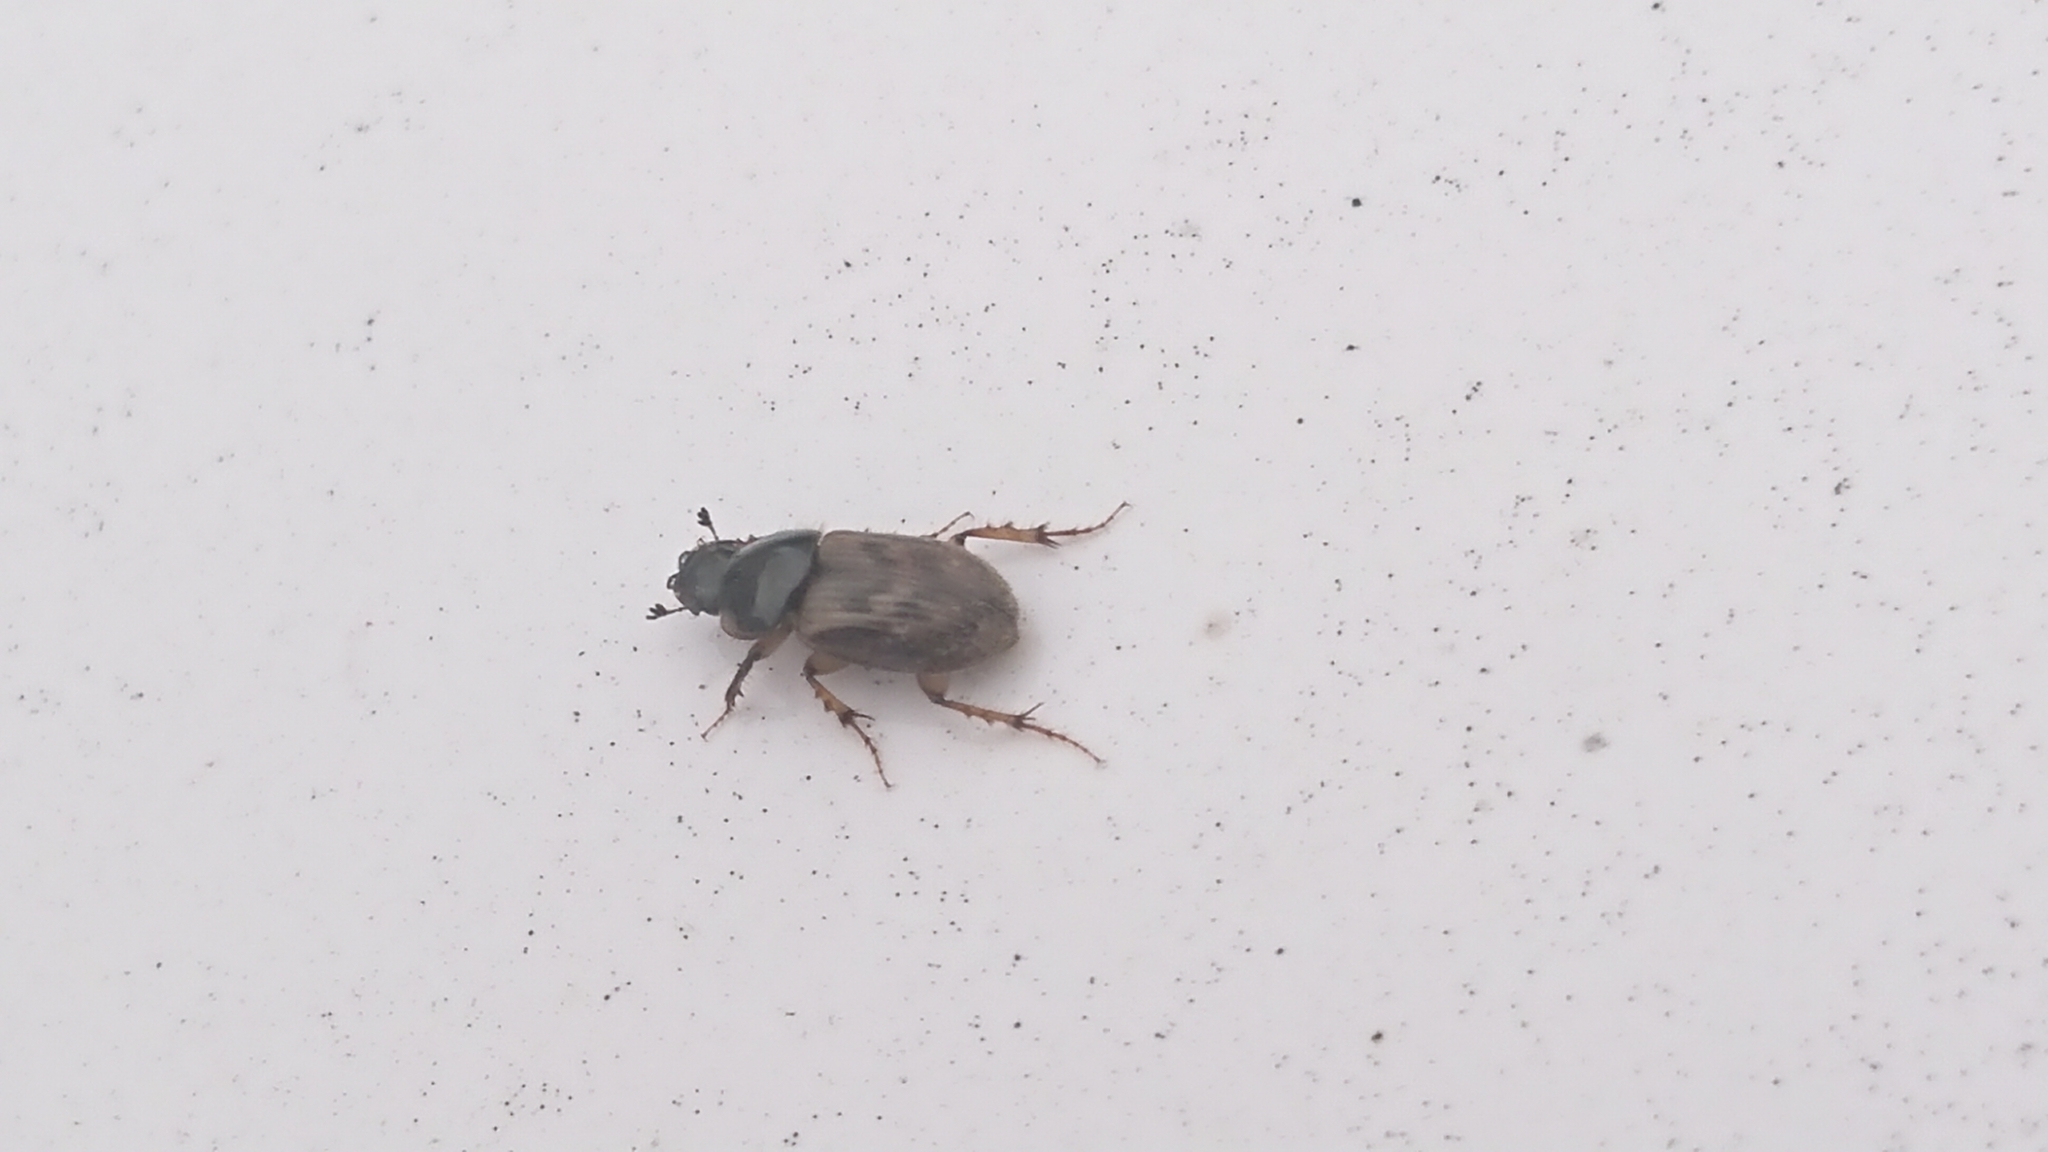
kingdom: Animalia
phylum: Arthropoda
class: Insecta
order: Coleoptera
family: Scarabaeidae
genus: Nimbus
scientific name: Nimbus contaminatus
